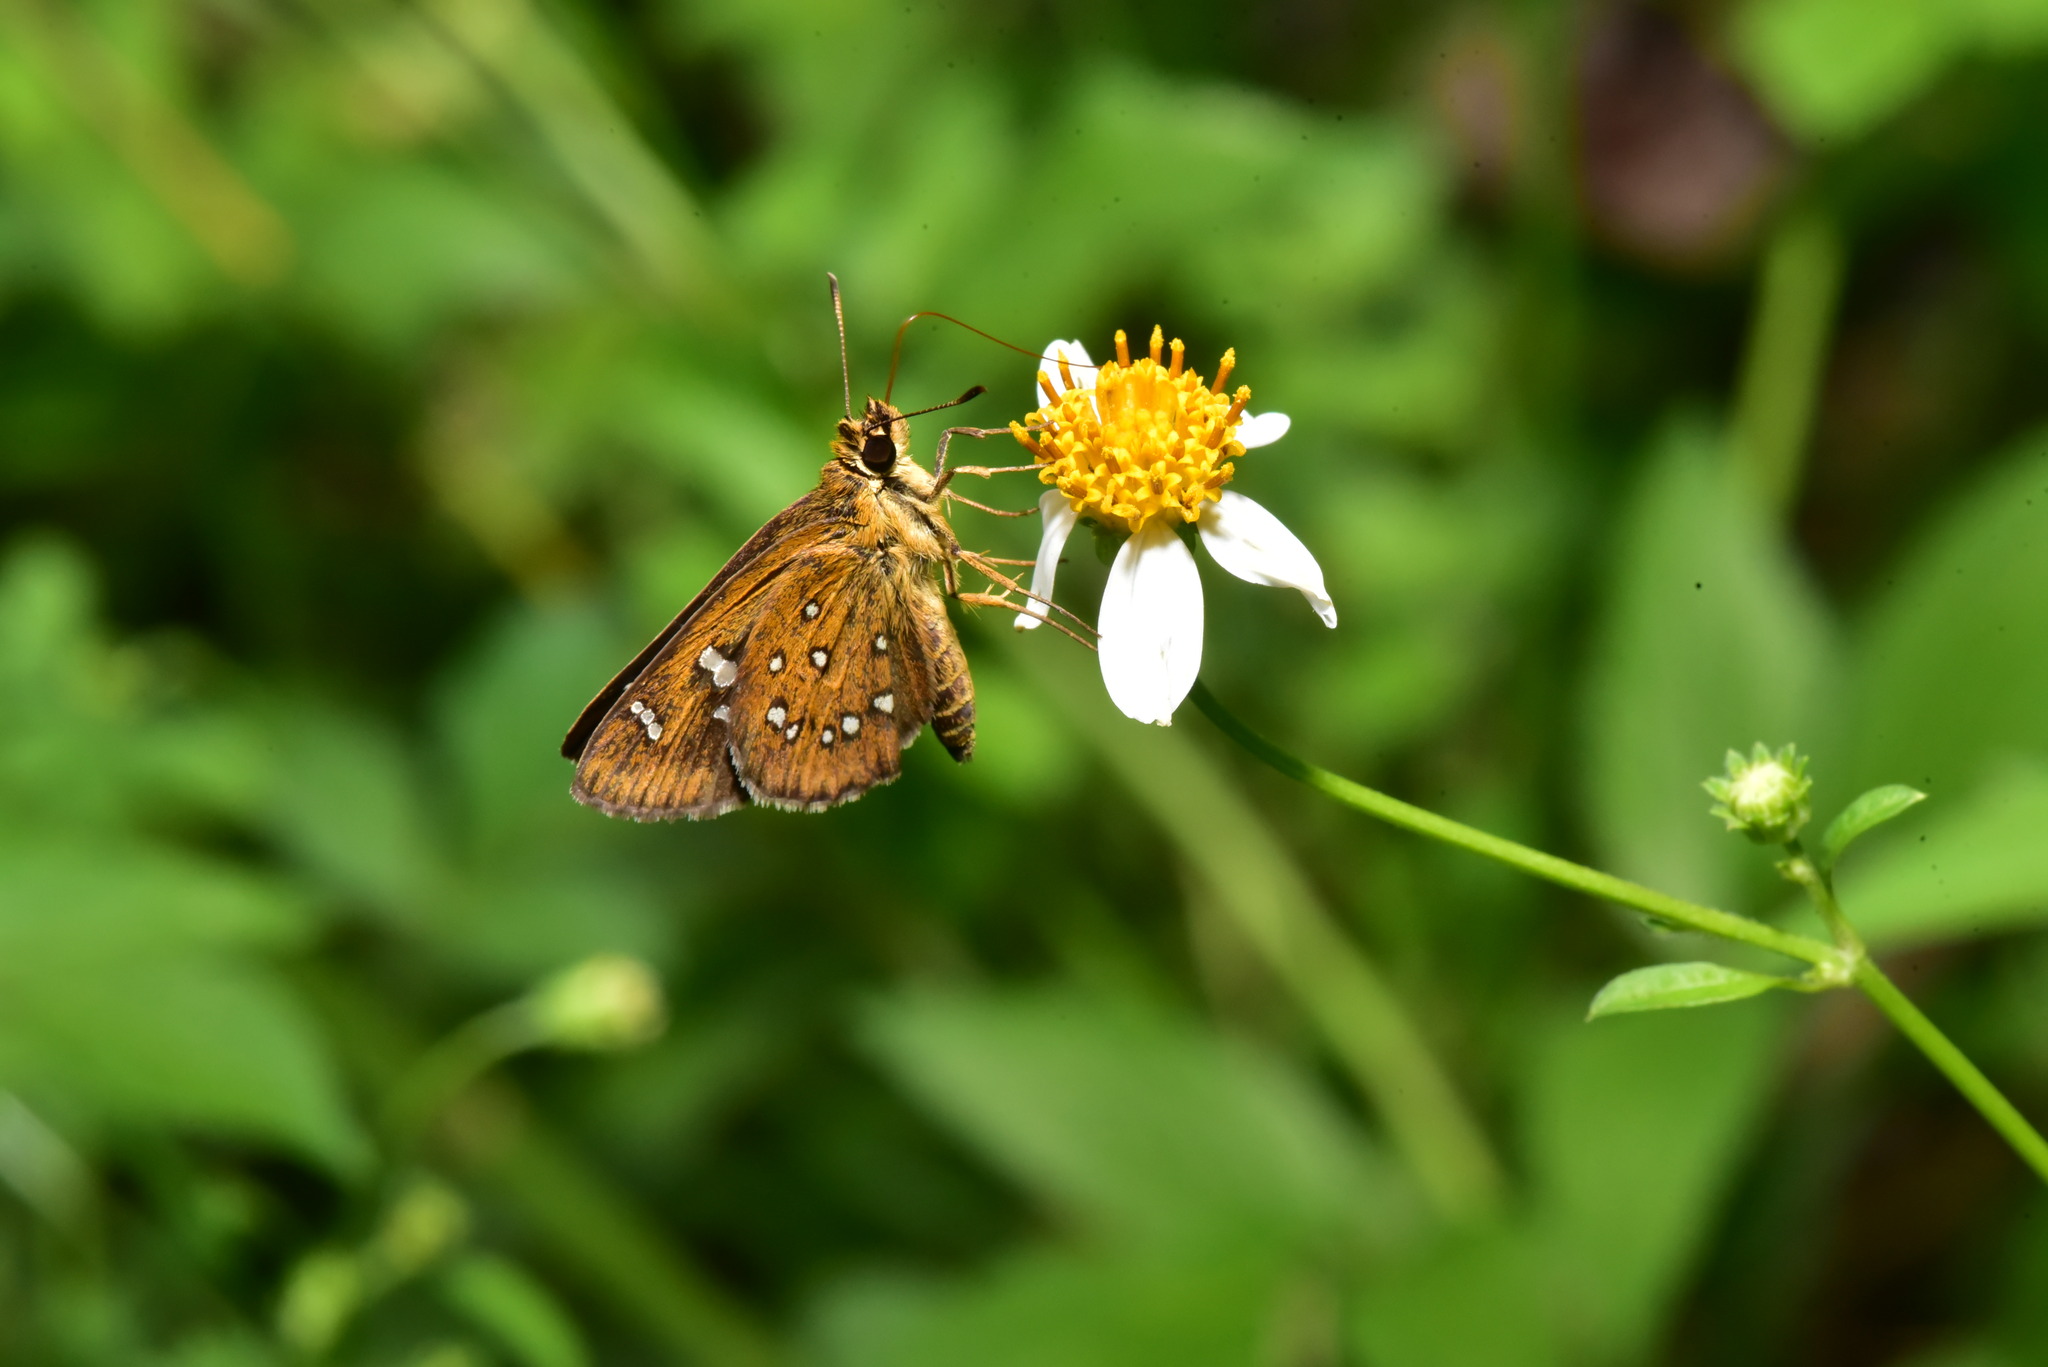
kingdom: Animalia
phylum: Arthropoda
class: Insecta
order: Lepidoptera
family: Hesperiidae
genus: Isoteinon
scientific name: Isoteinon lamprospilus
